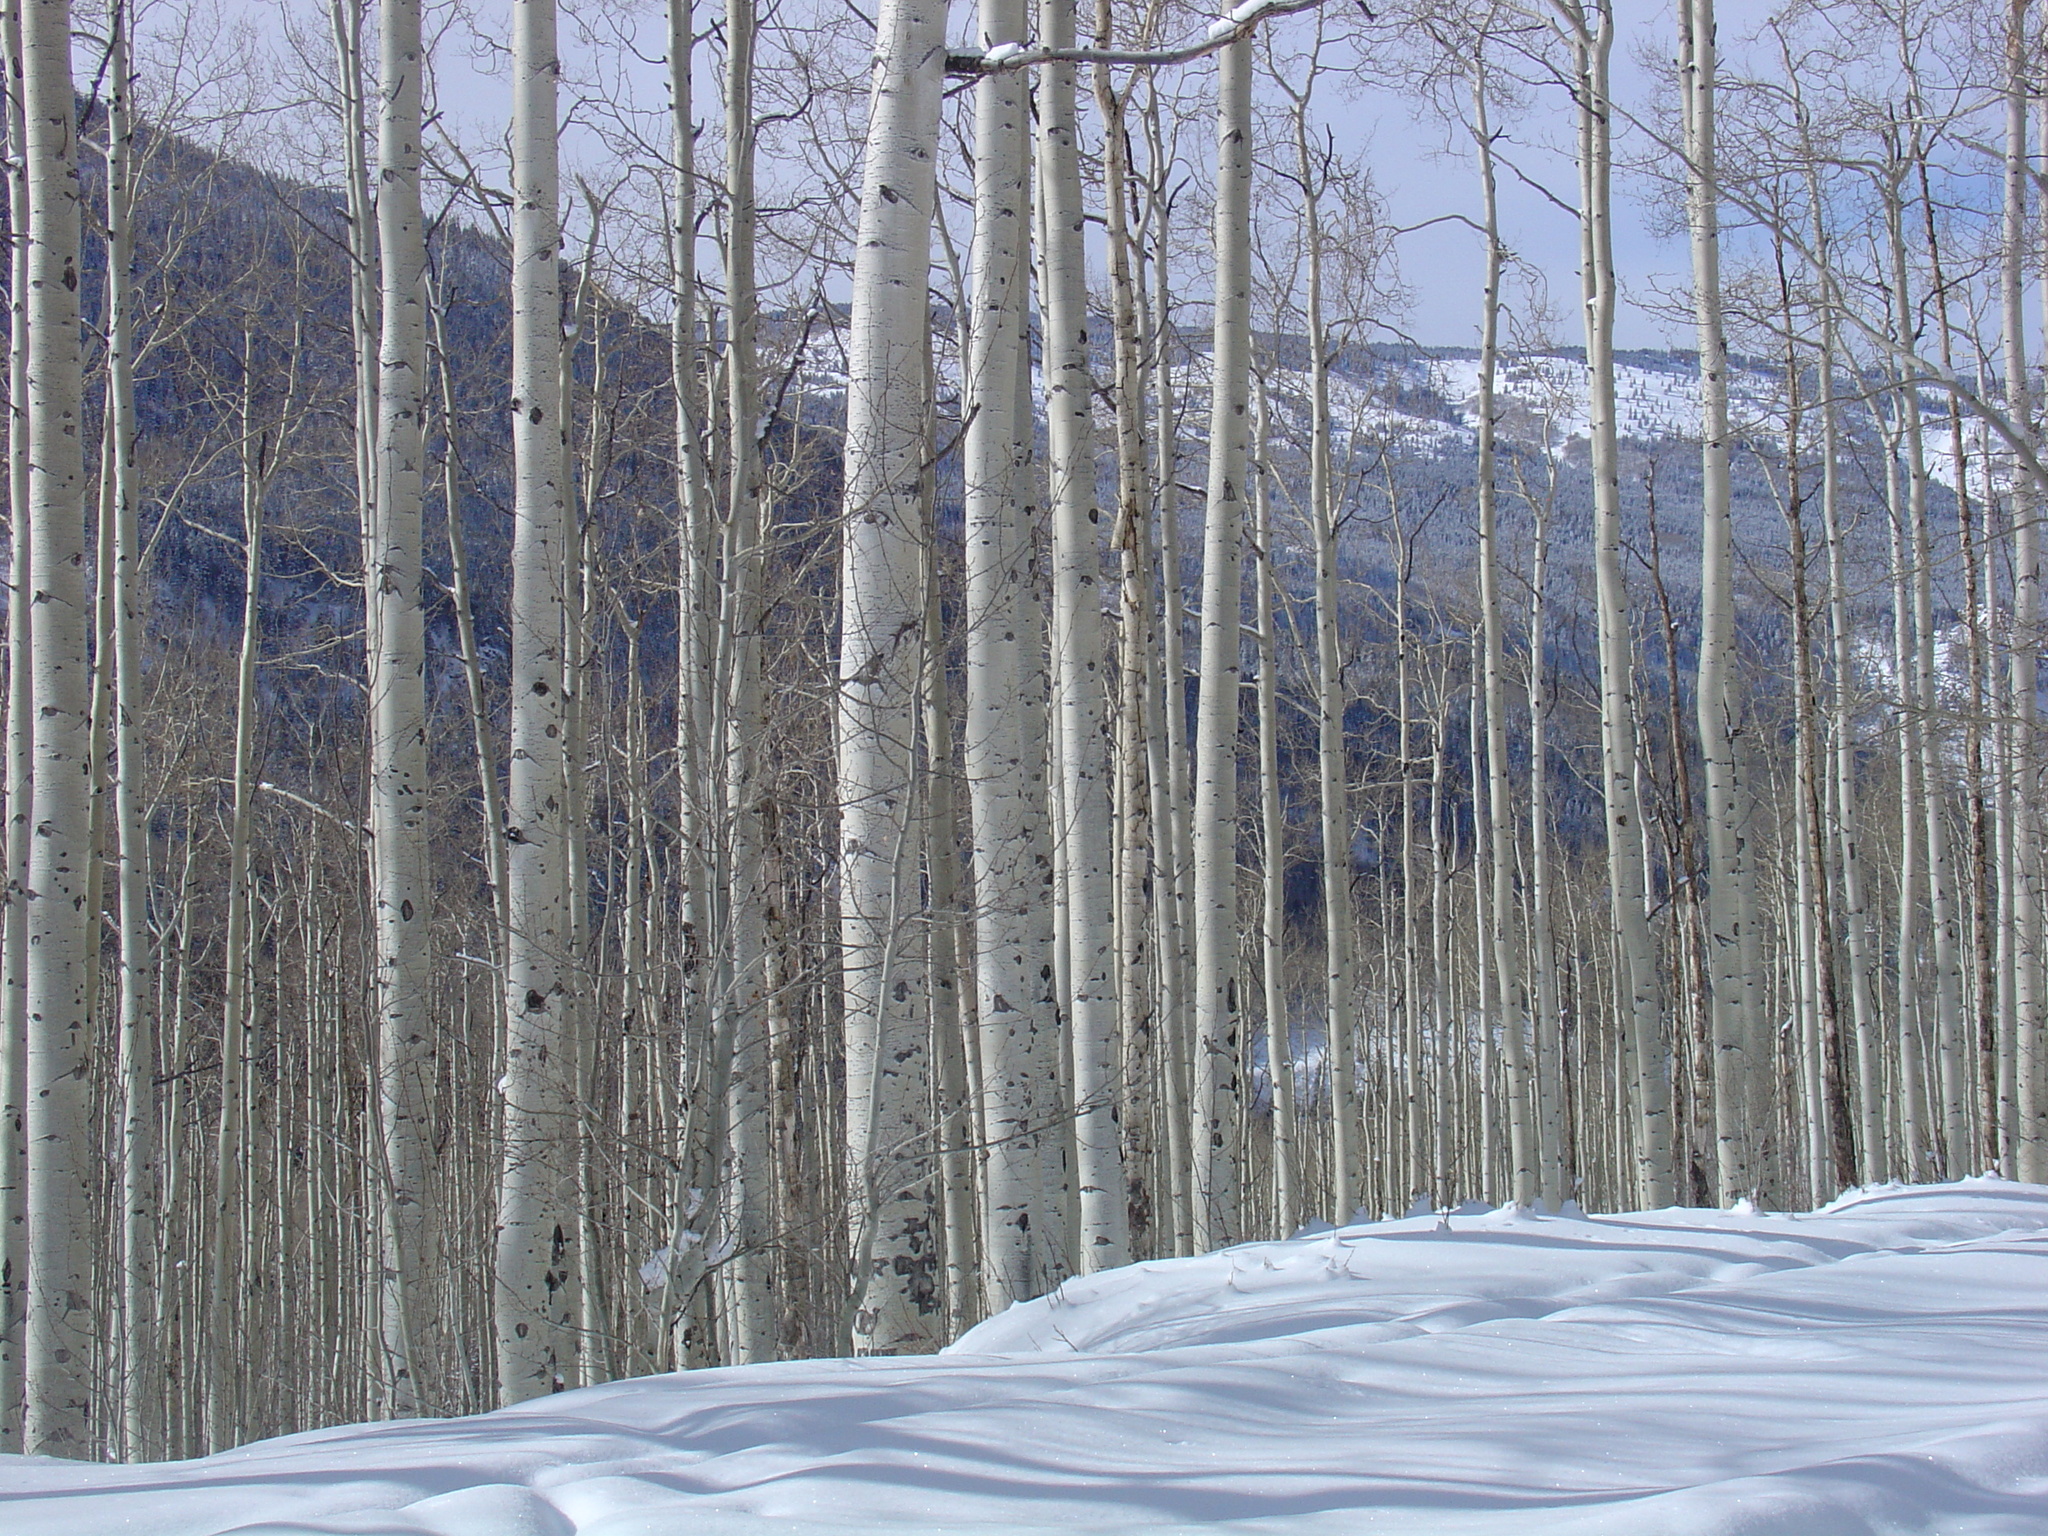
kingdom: Plantae
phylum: Tracheophyta
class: Magnoliopsida
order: Malpighiales
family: Salicaceae
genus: Populus
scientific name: Populus tremuloides
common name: Quaking aspen
